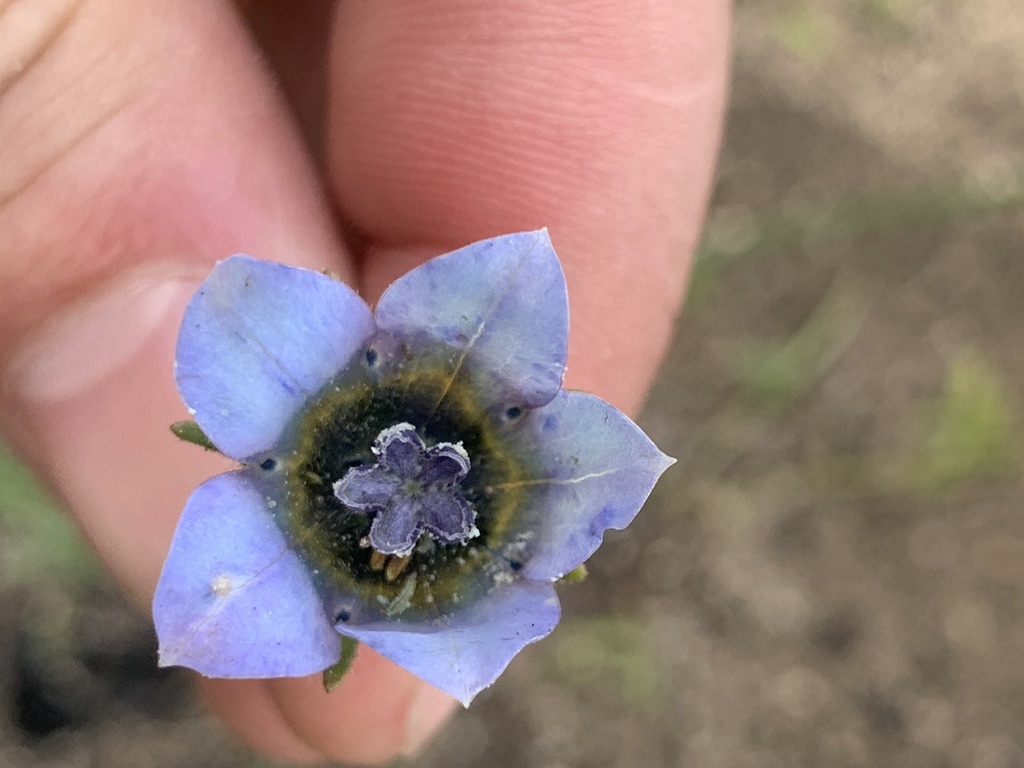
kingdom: Plantae
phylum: Tracheophyta
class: Magnoliopsida
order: Asterales
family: Campanulaceae
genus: Wahlenbergia
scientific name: Wahlenbergia capensis
